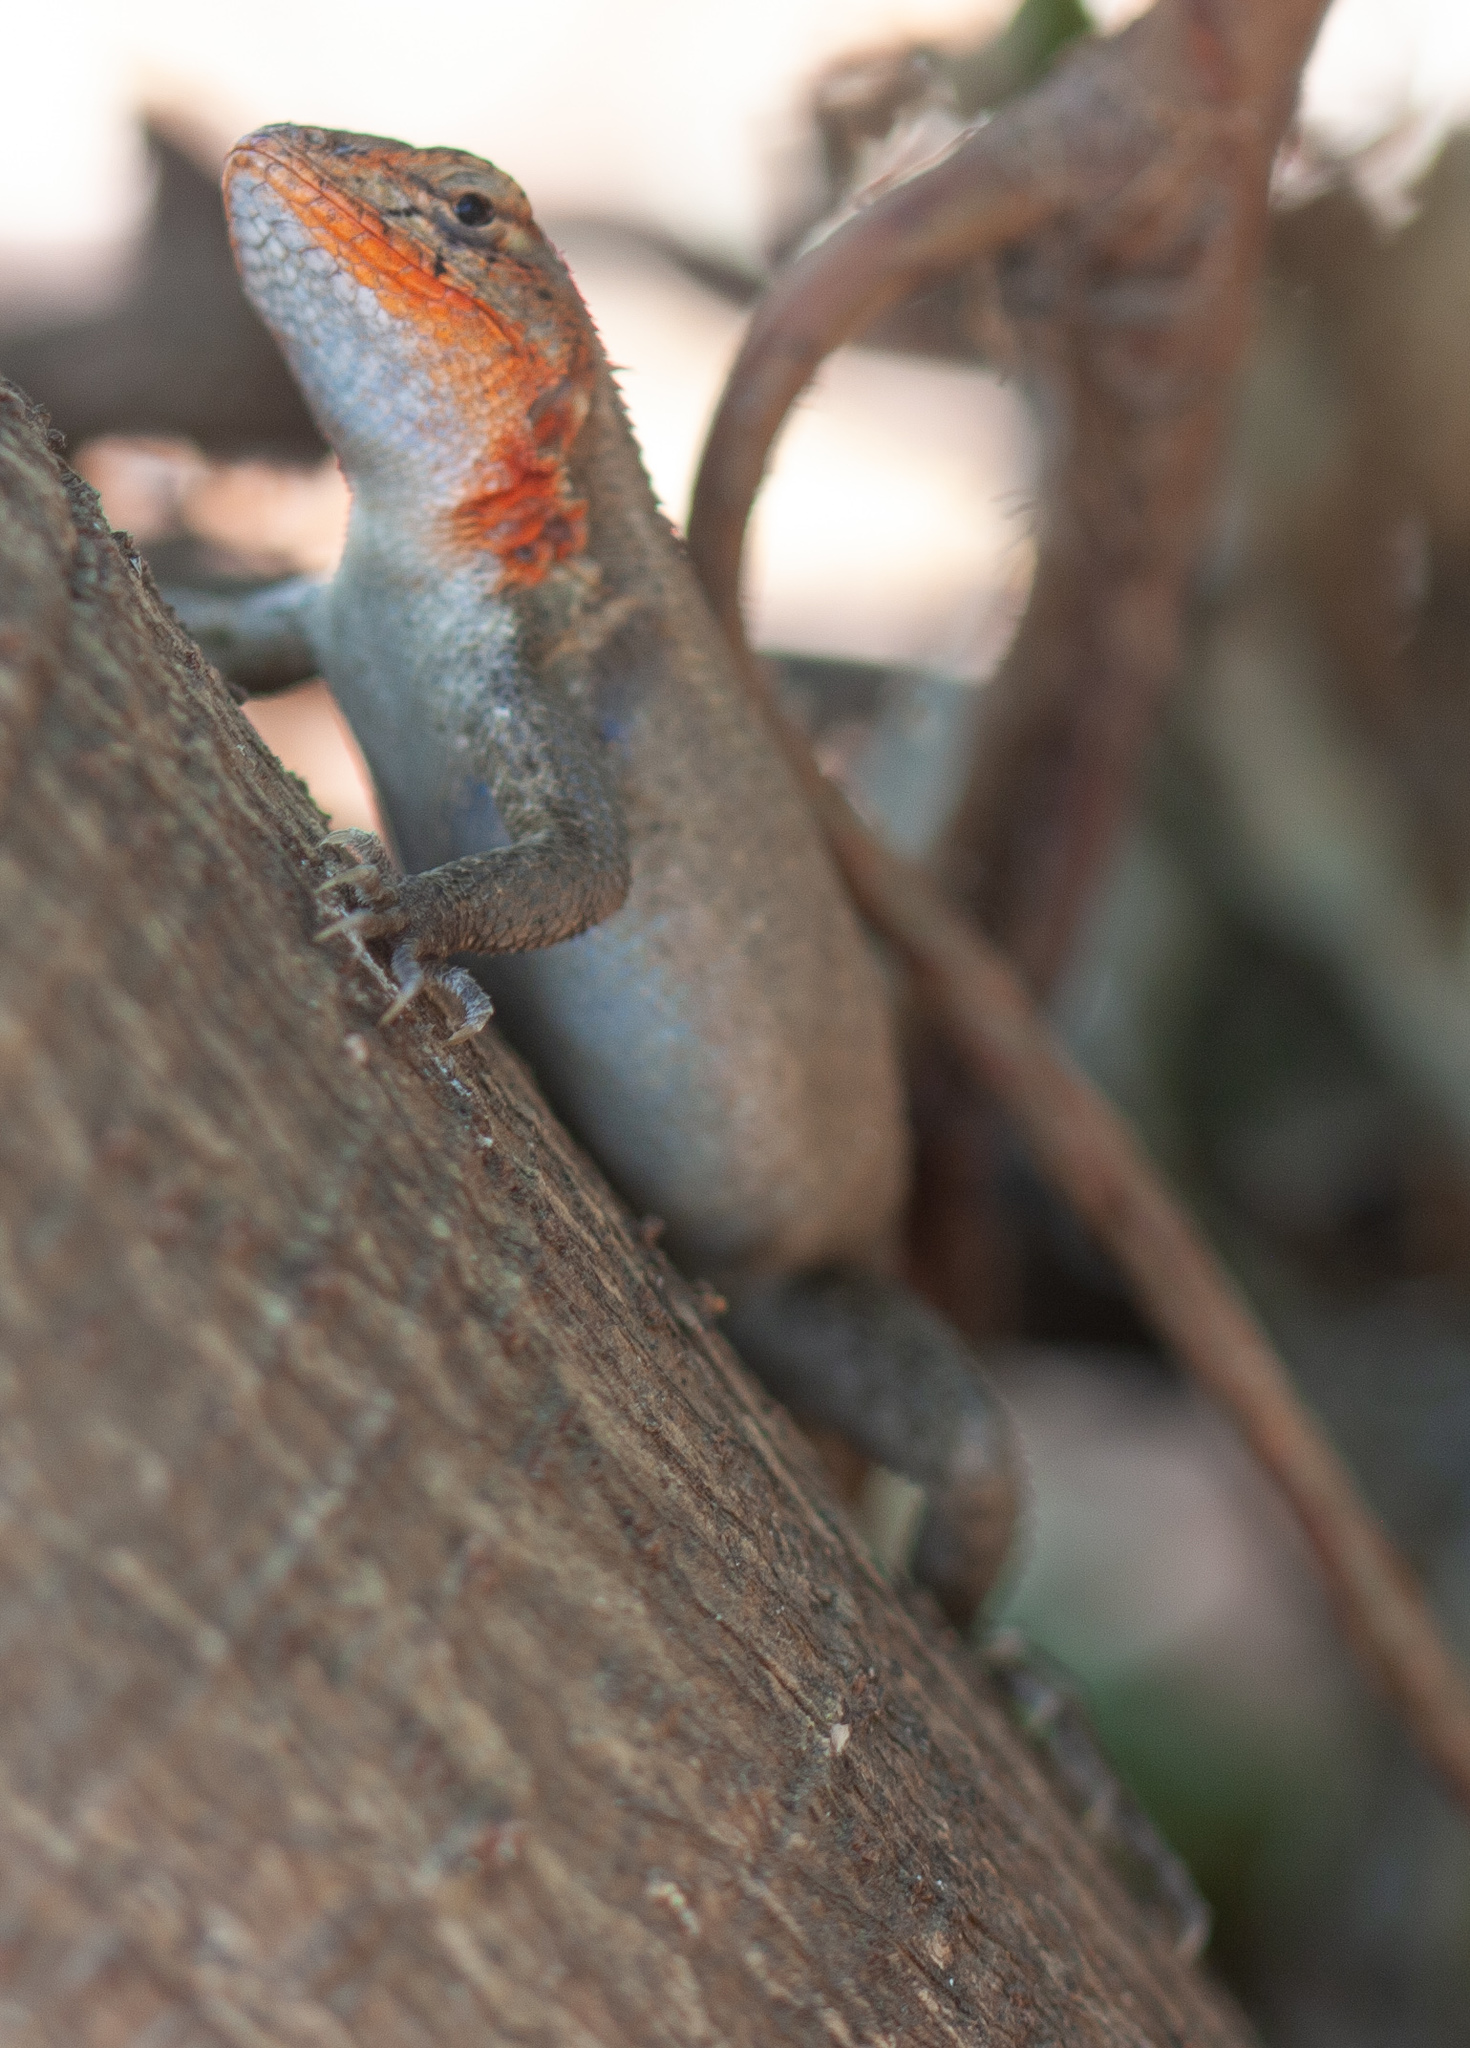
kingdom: Animalia
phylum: Chordata
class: Squamata
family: Phrynosomatidae
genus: Sceloporus
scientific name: Sceloporus variabilis
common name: Rosebelly lizard
